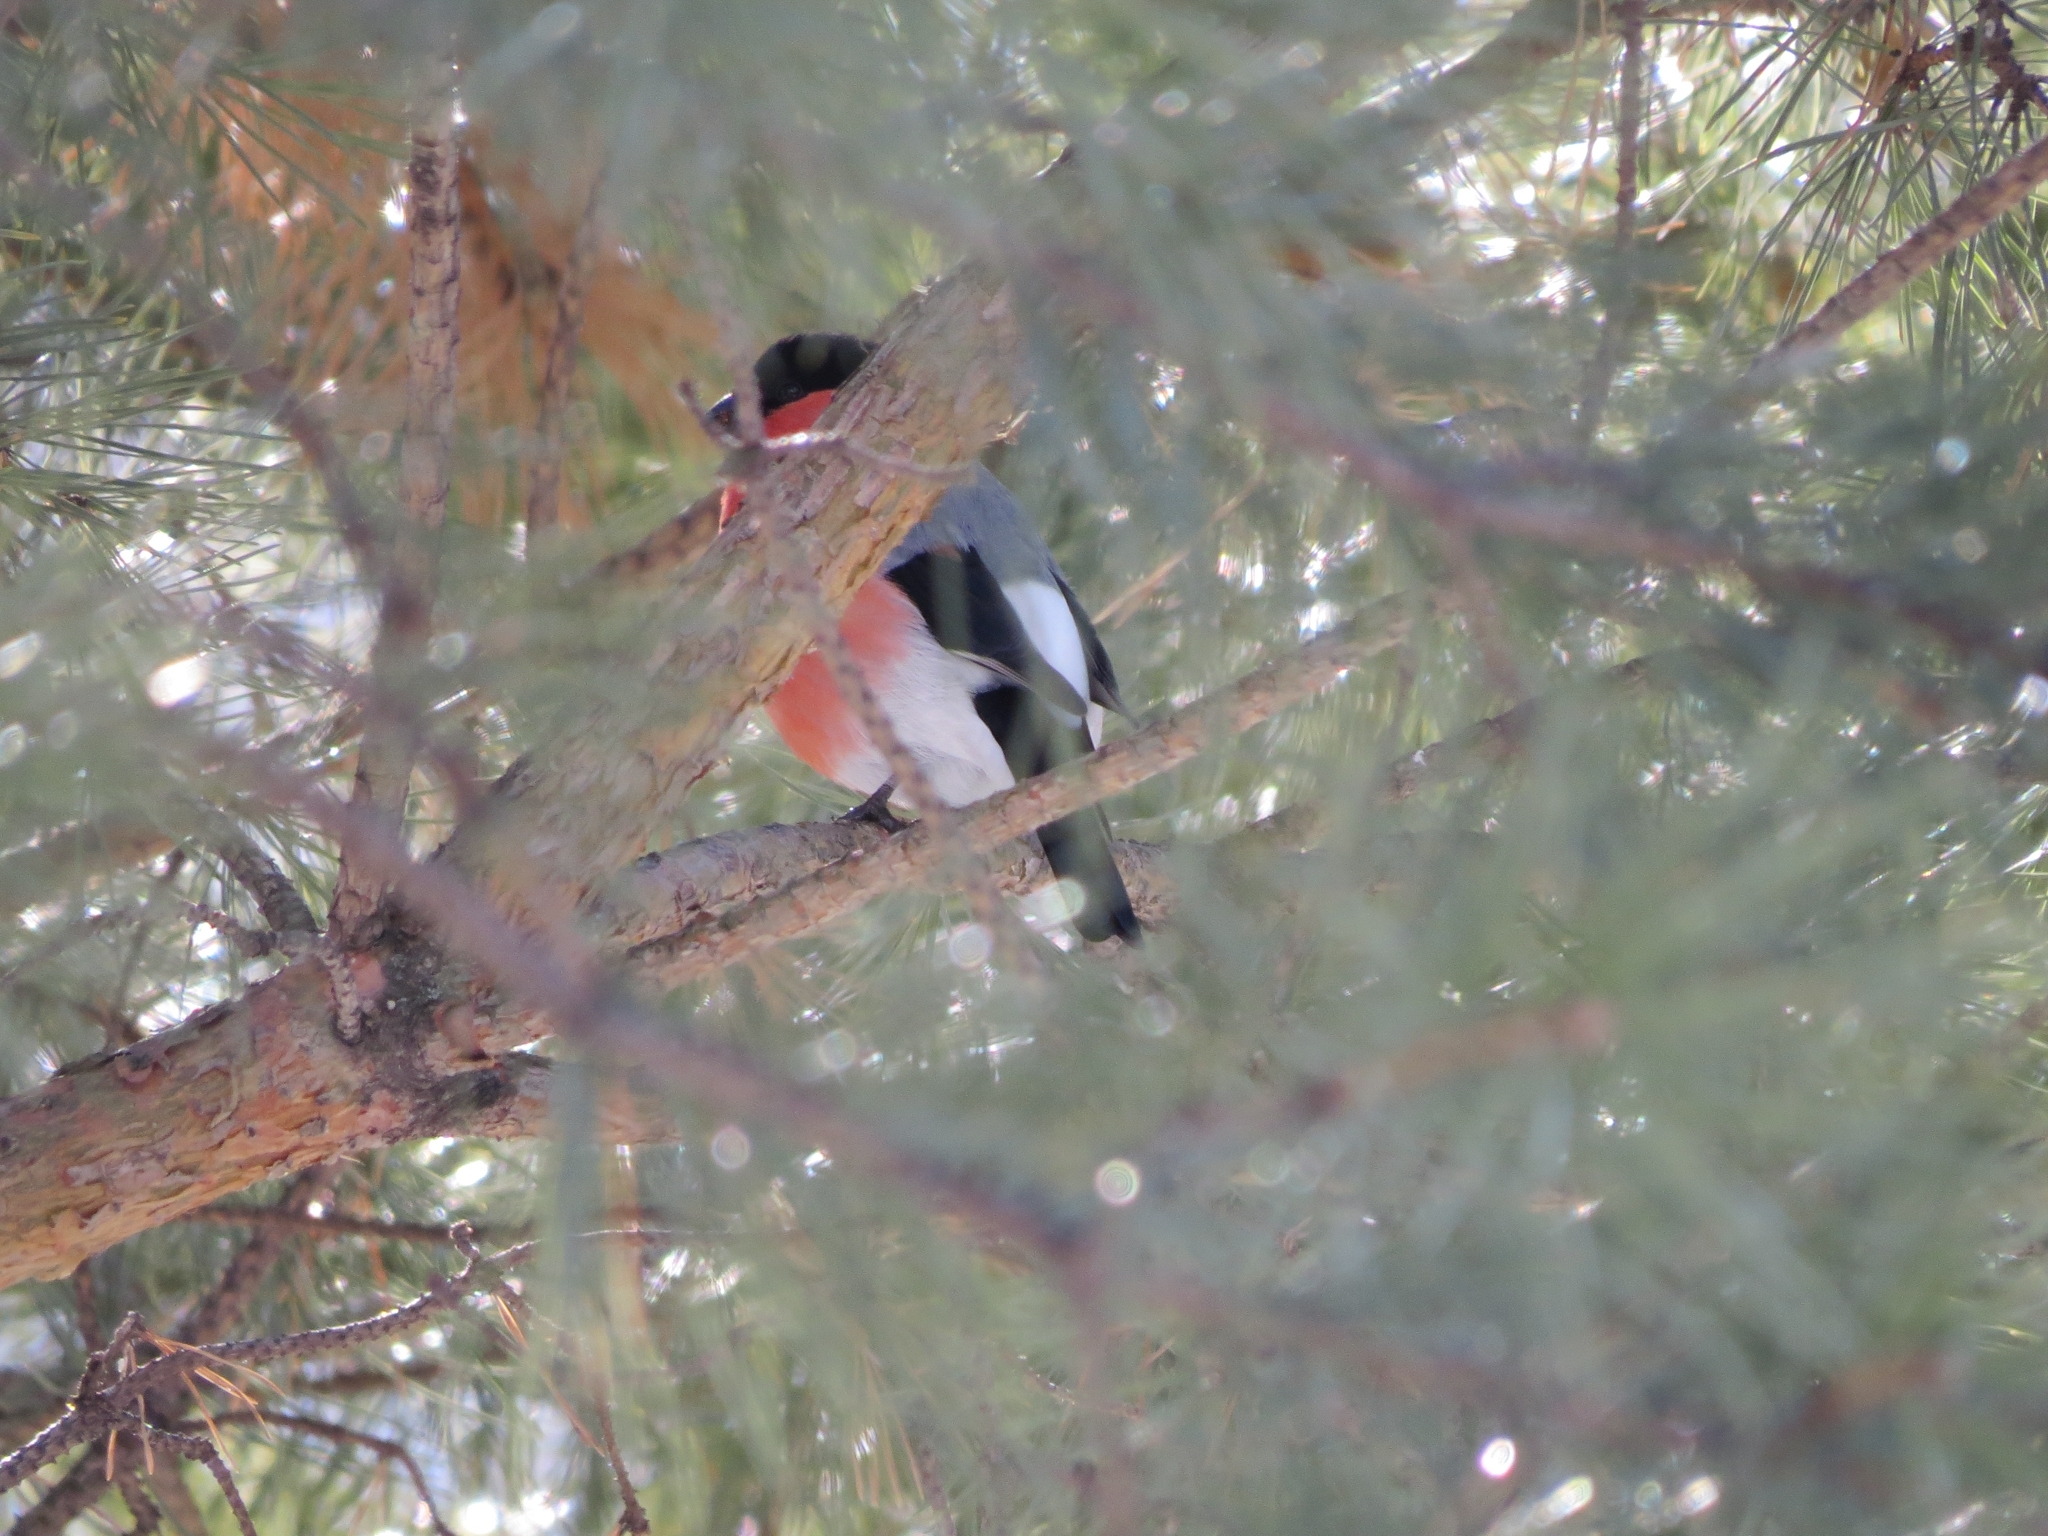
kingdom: Animalia
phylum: Chordata
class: Aves
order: Passeriformes
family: Fringillidae
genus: Pyrrhula
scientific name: Pyrrhula pyrrhula
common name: Eurasian bullfinch
